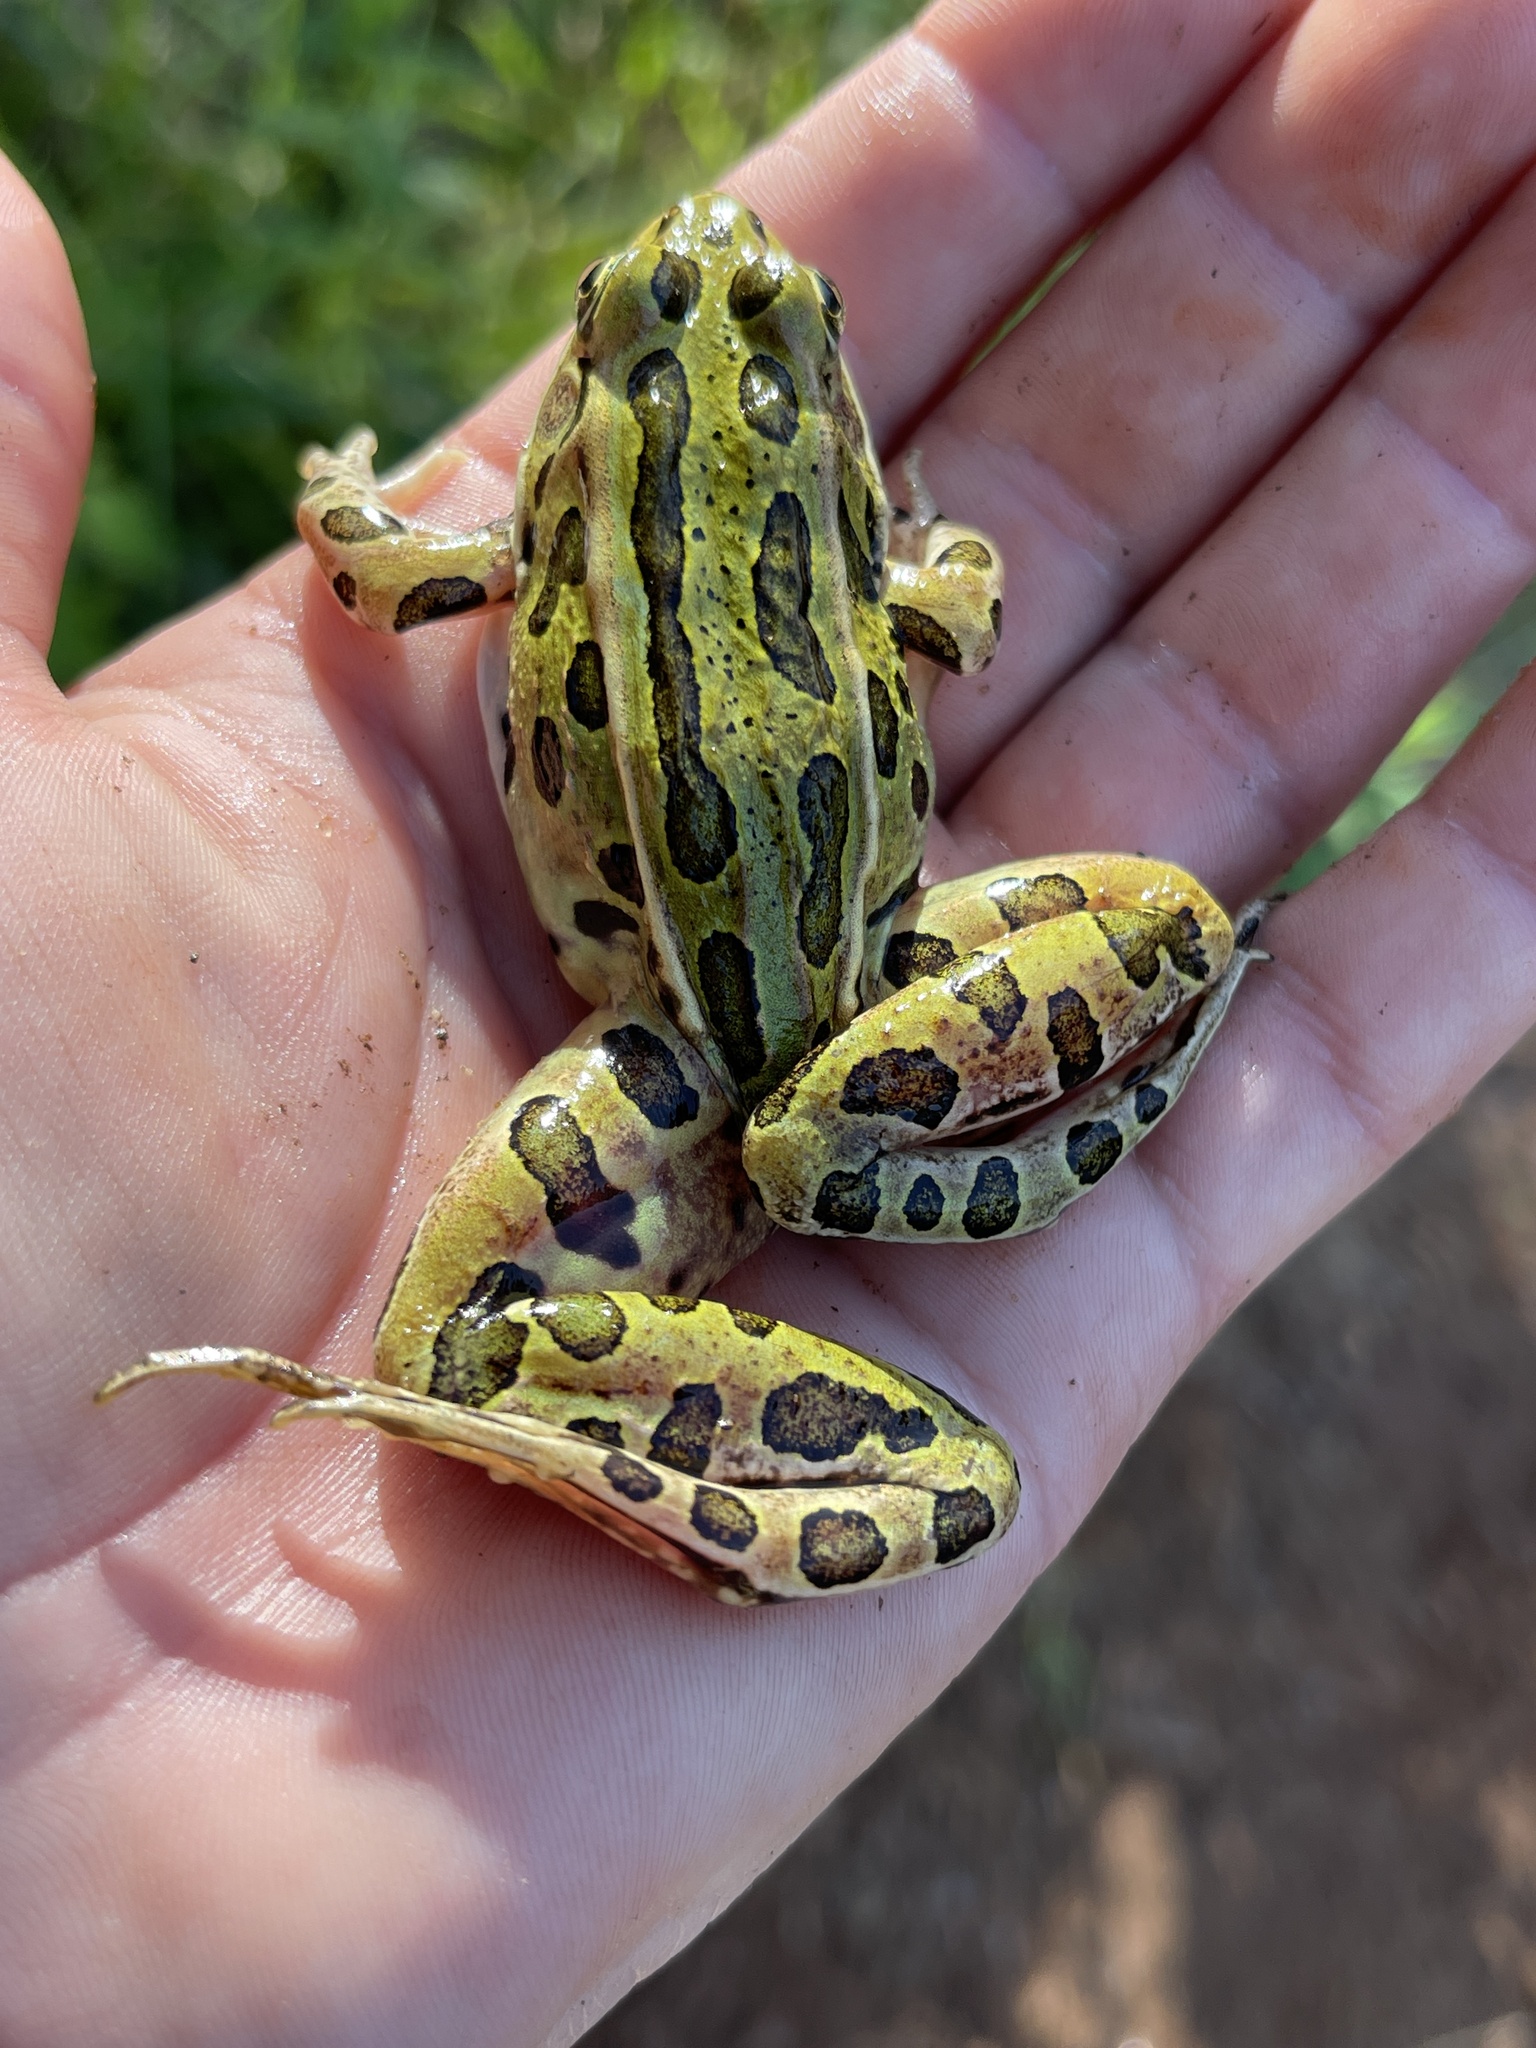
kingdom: Animalia
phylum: Chordata
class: Amphibia
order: Anura
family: Ranidae
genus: Lithobates
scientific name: Lithobates pipiens
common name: Northern leopard frog
